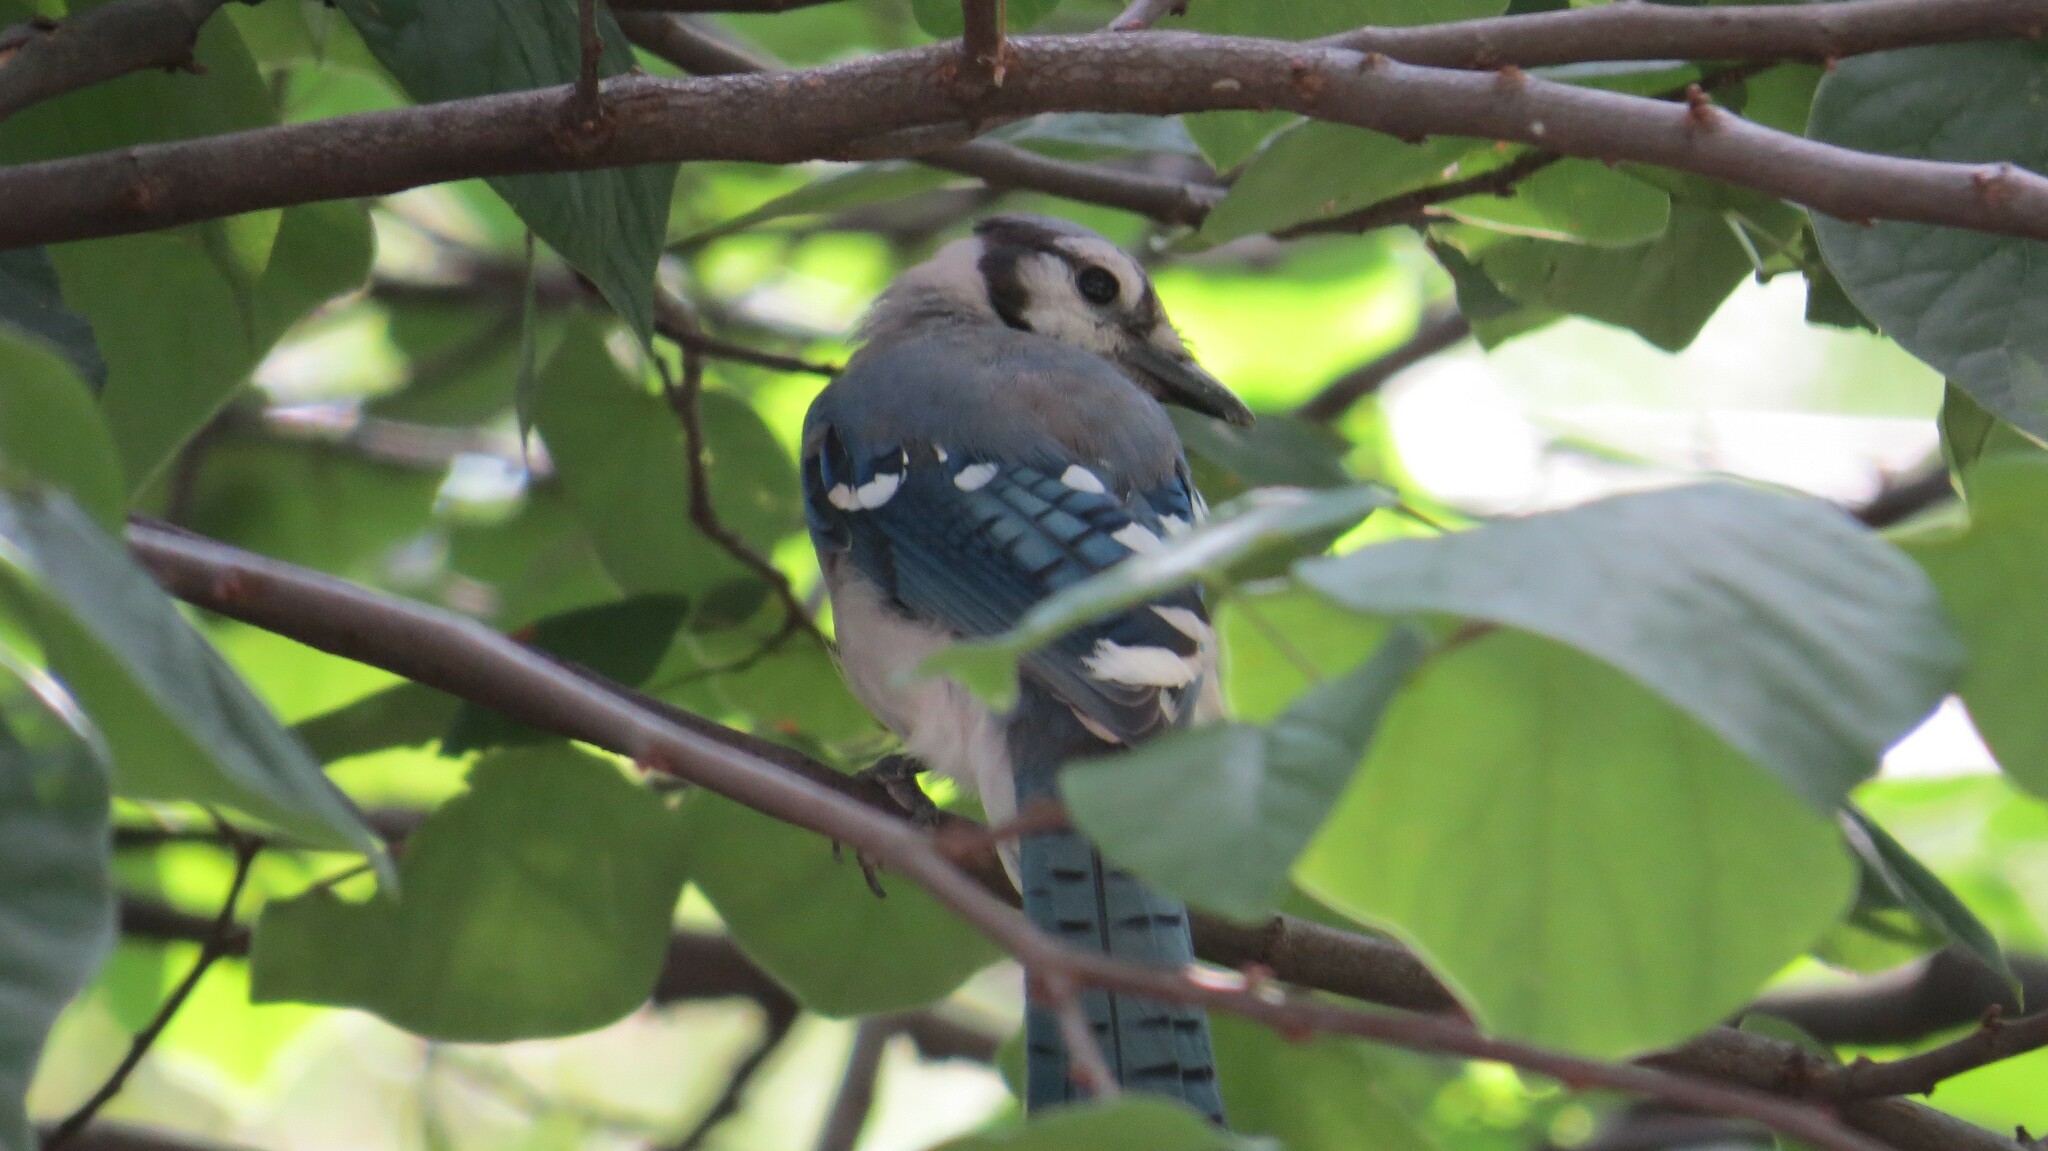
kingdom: Animalia
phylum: Chordata
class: Aves
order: Passeriformes
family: Corvidae
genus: Cyanocitta
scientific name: Cyanocitta cristata
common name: Blue jay
